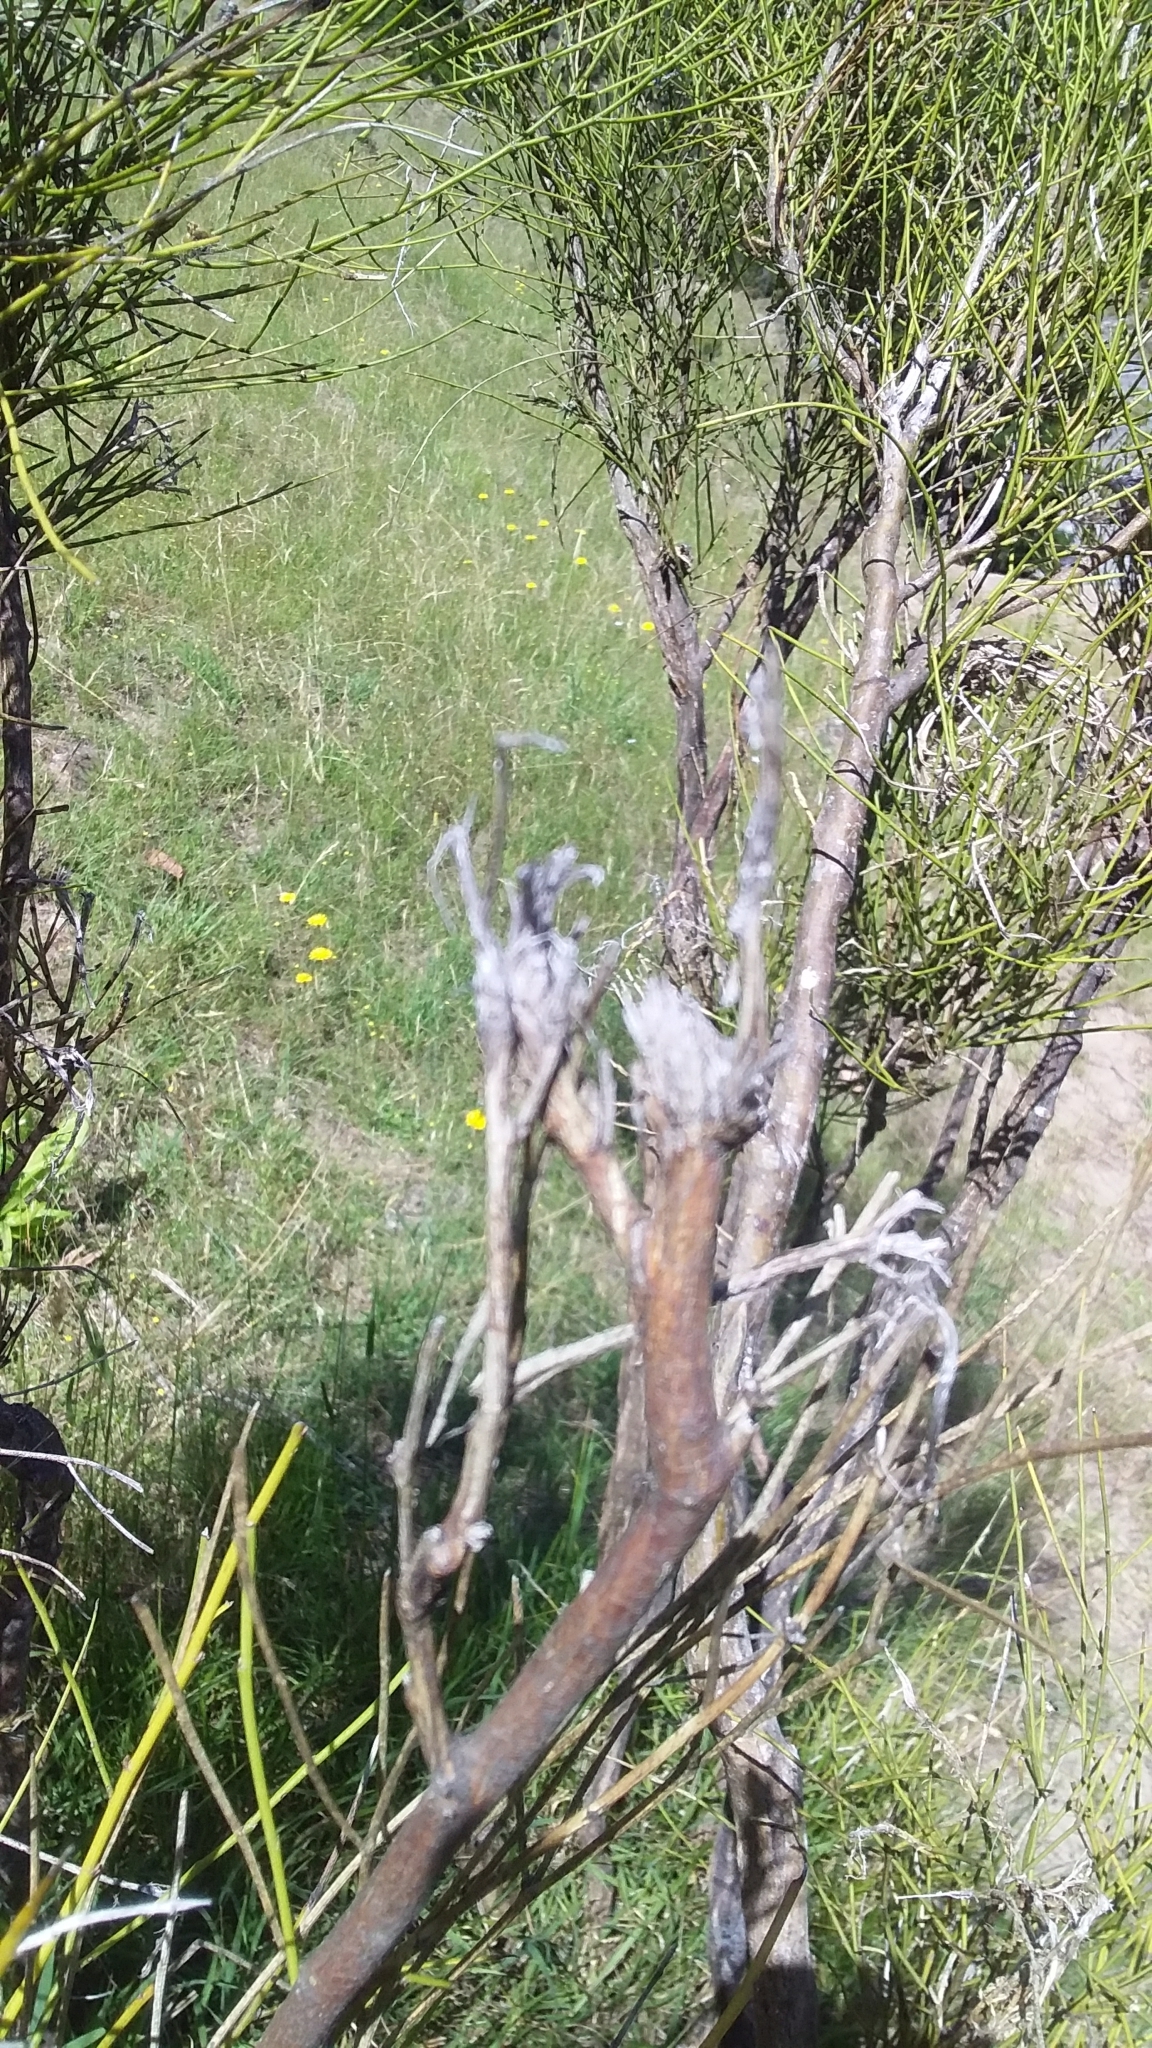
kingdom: Plantae
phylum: Tracheophyta
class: Magnoliopsida
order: Fabales
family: Fabaceae
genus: Carmichaelia
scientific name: Carmichaelia australis
